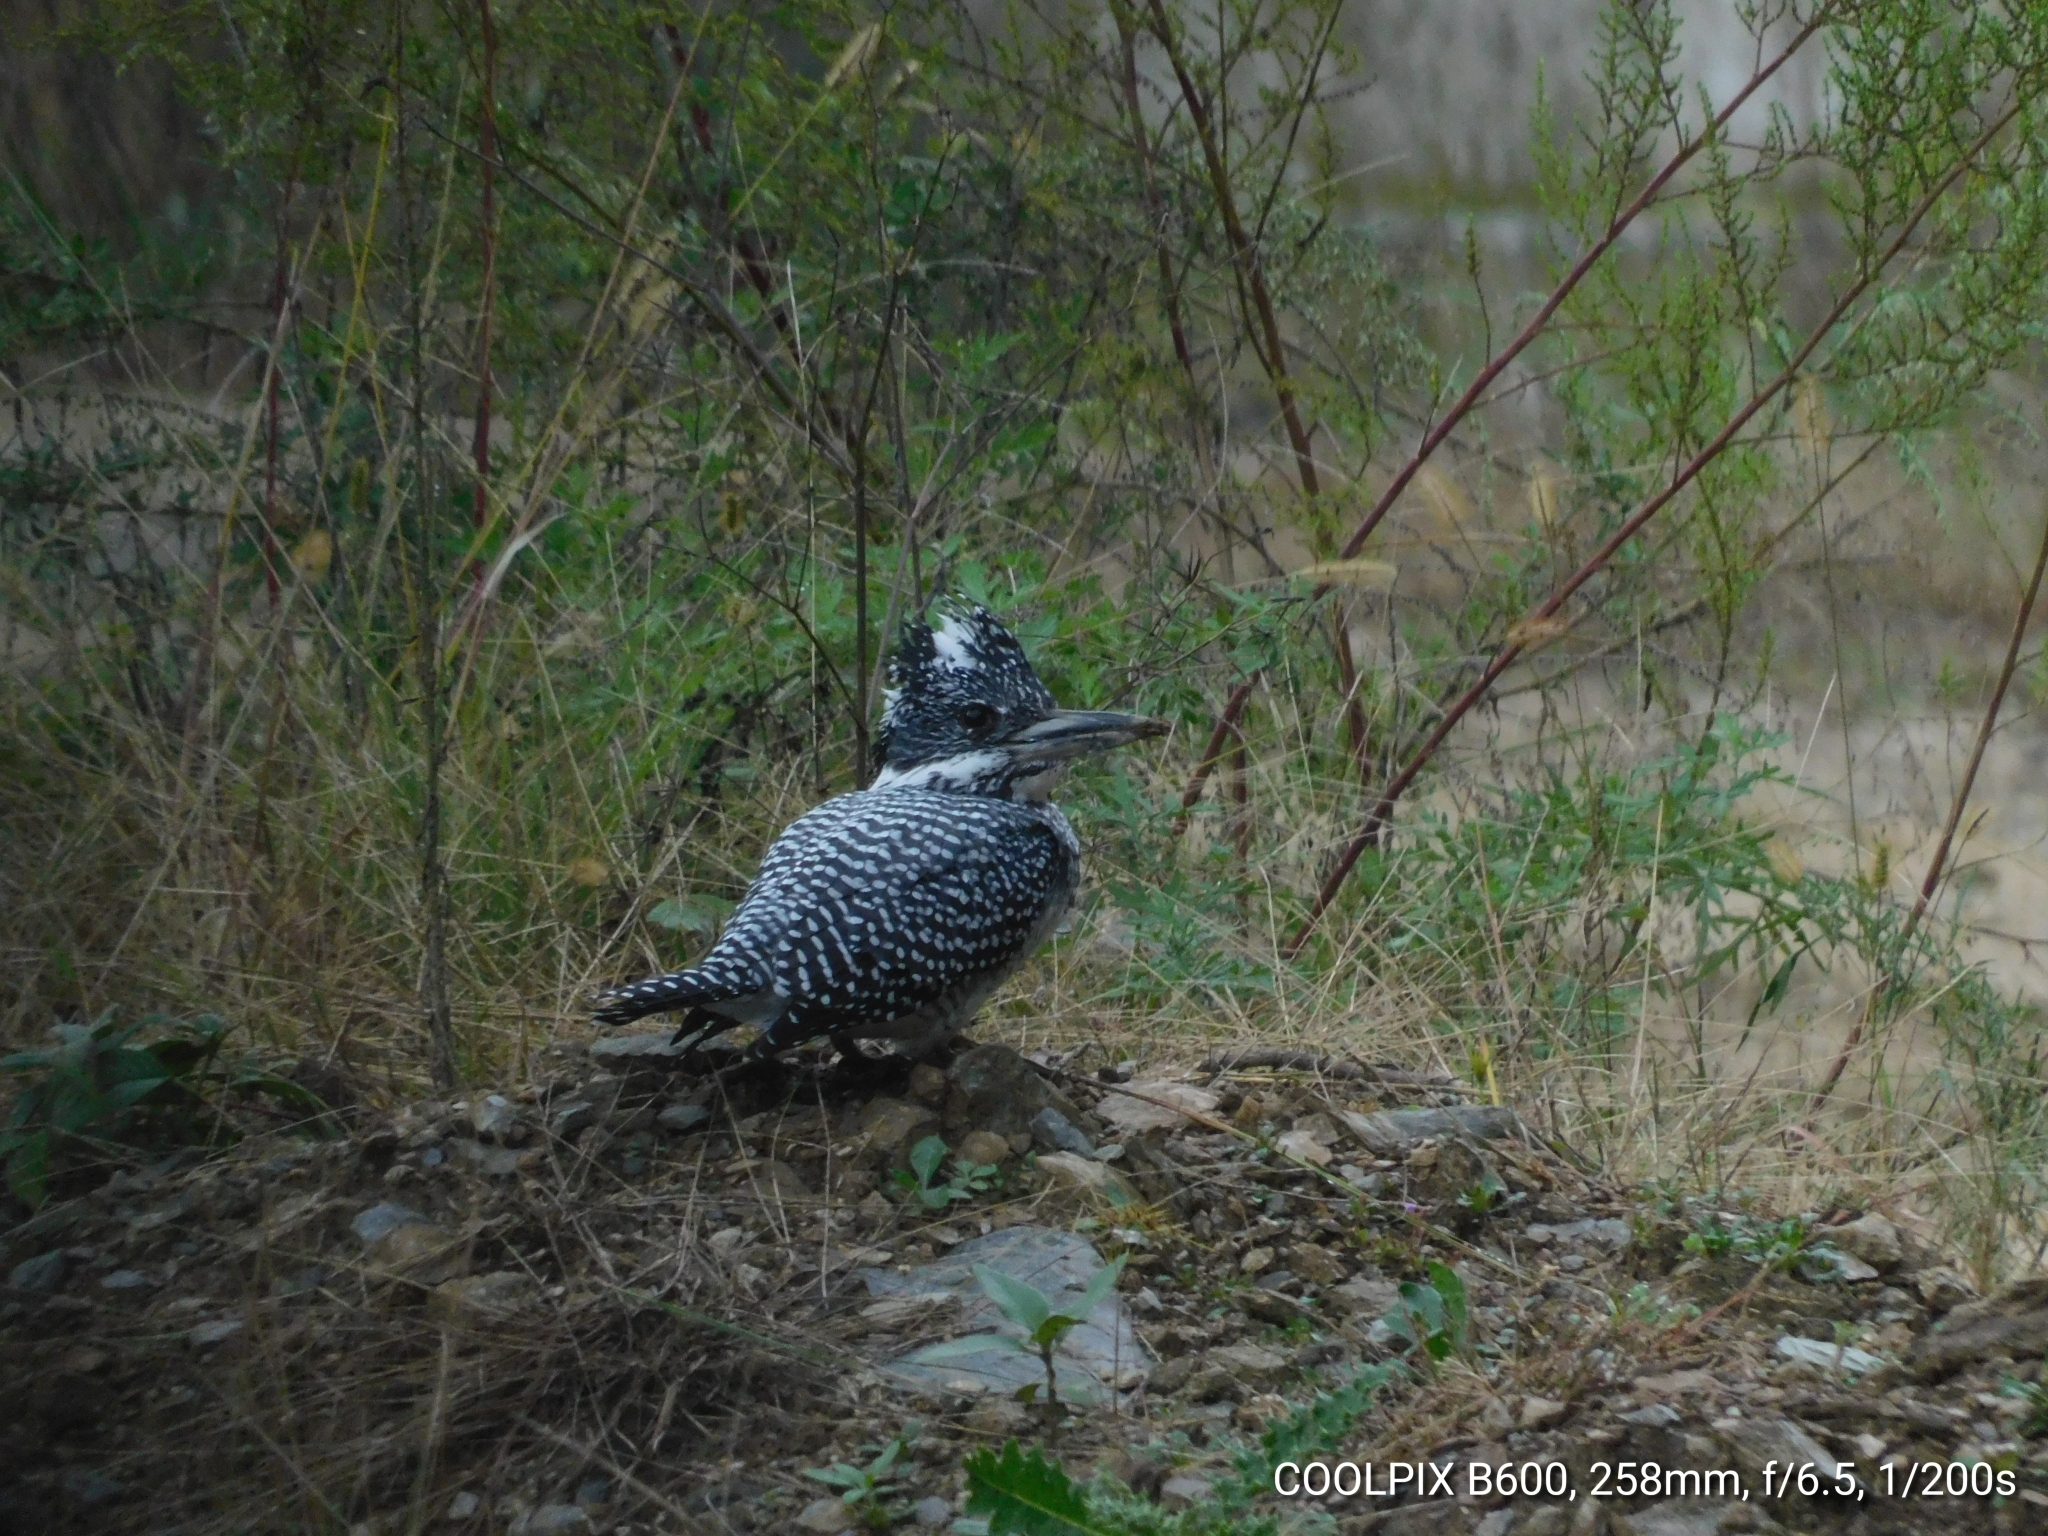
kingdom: Animalia
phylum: Chordata
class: Aves
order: Coraciiformes
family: Alcedinidae
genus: Megaceryle
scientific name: Megaceryle lugubris
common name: Crested kingfisher
